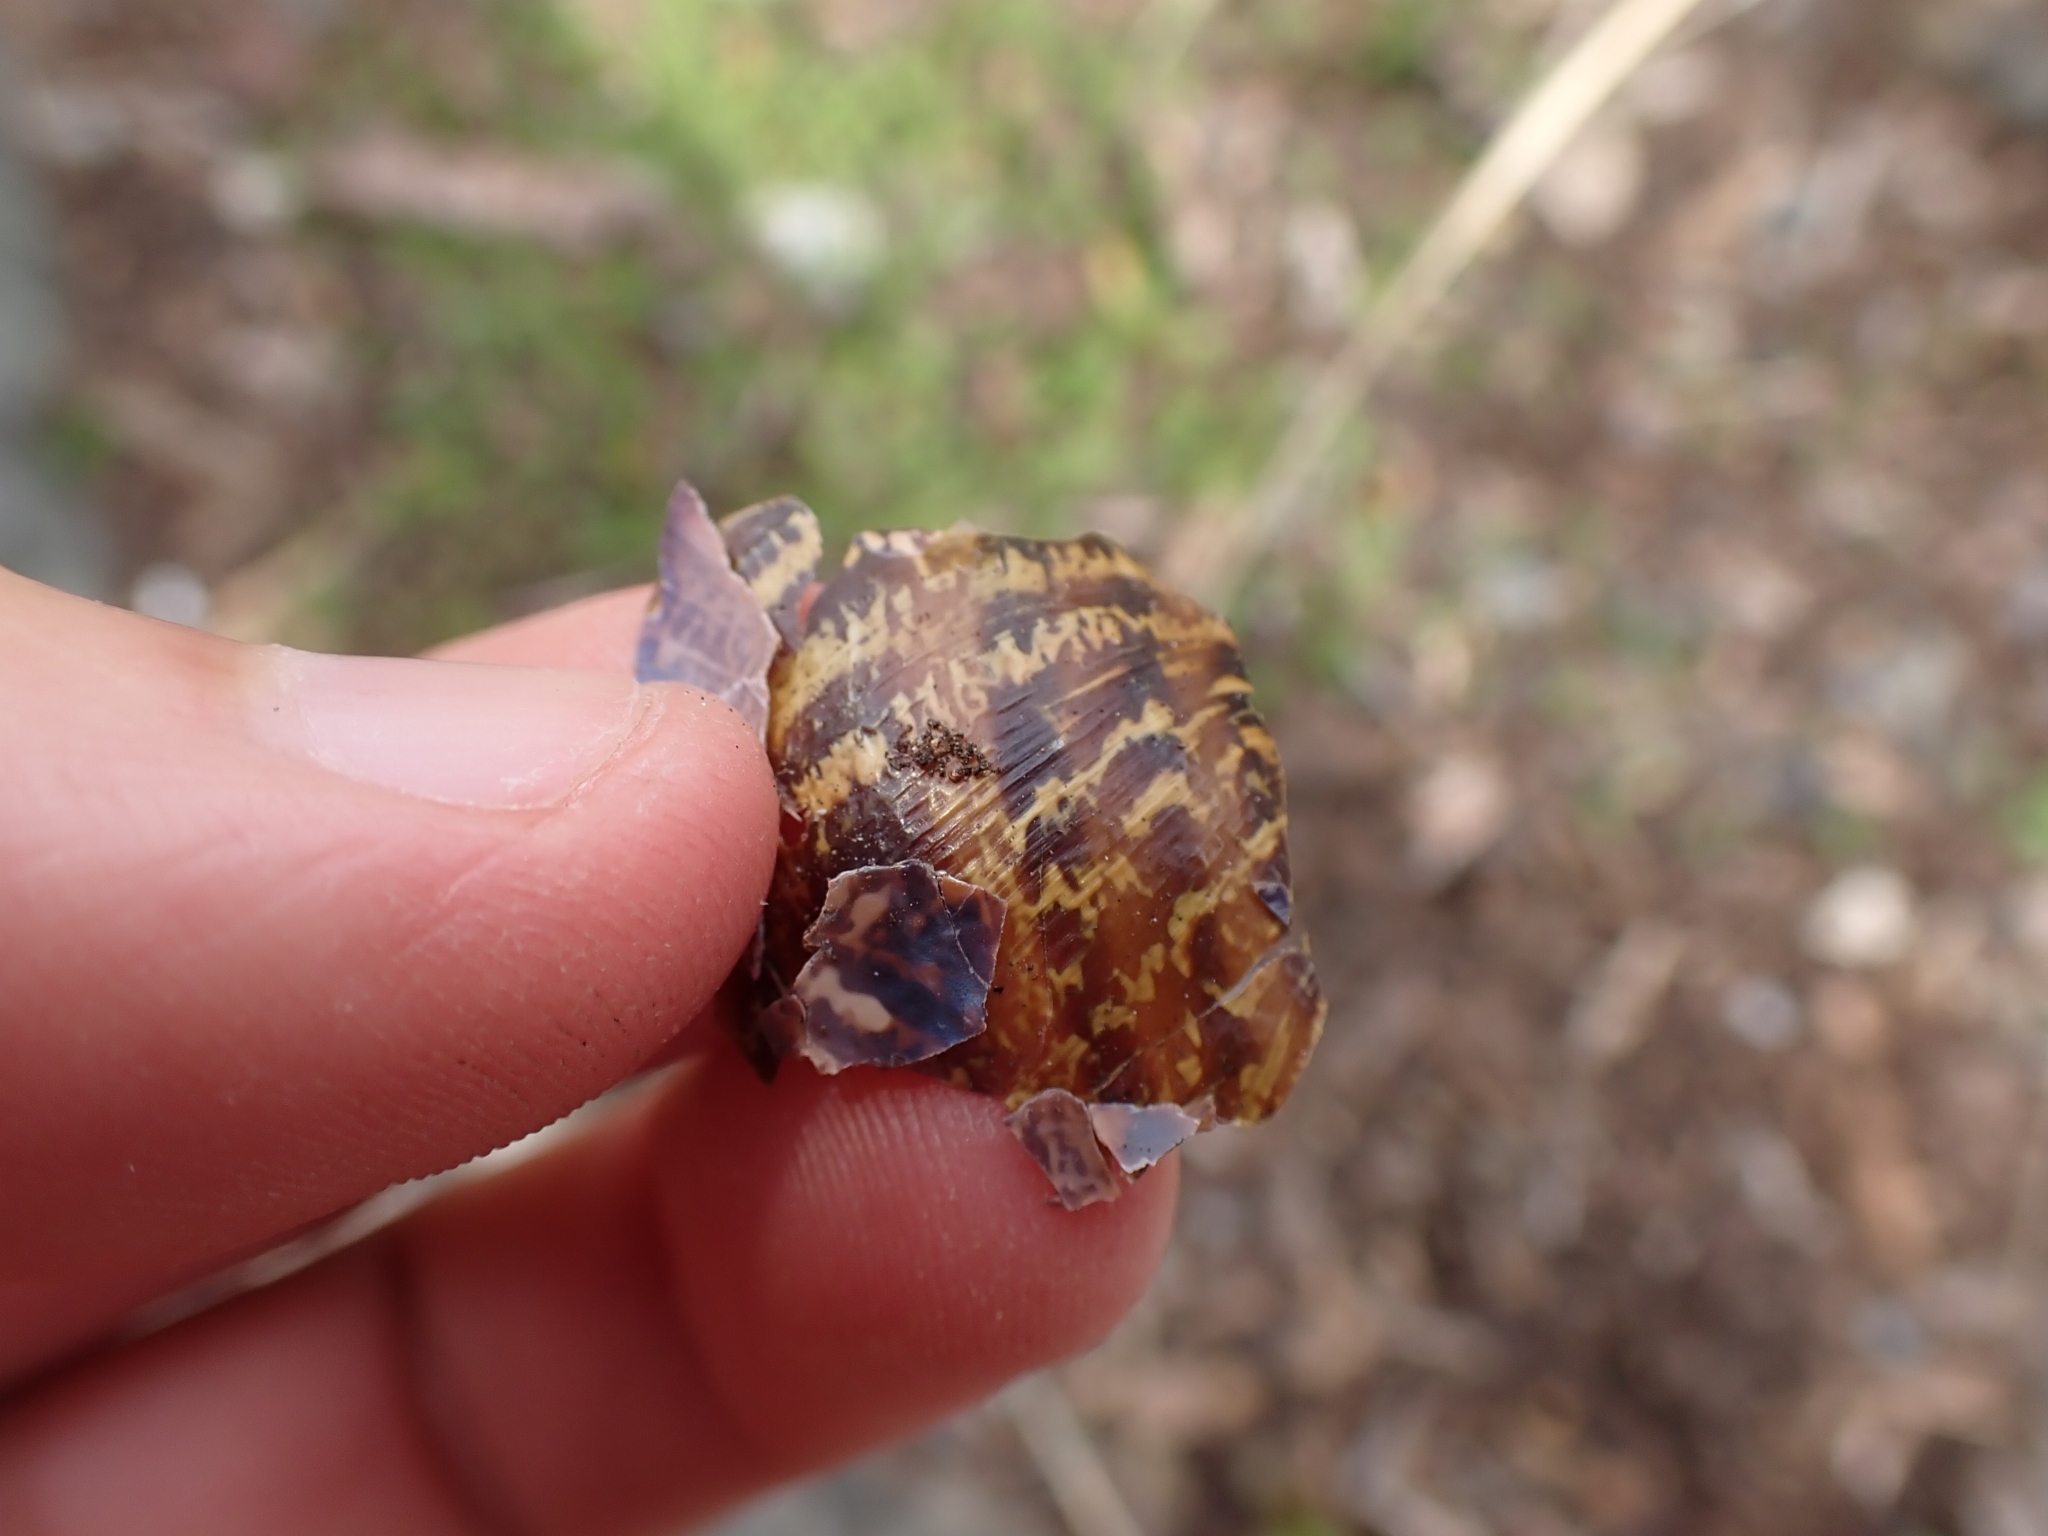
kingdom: Animalia
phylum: Mollusca
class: Gastropoda
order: Stylommatophora
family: Helicidae
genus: Cornu
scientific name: Cornu aspersum
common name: Brown garden snail
